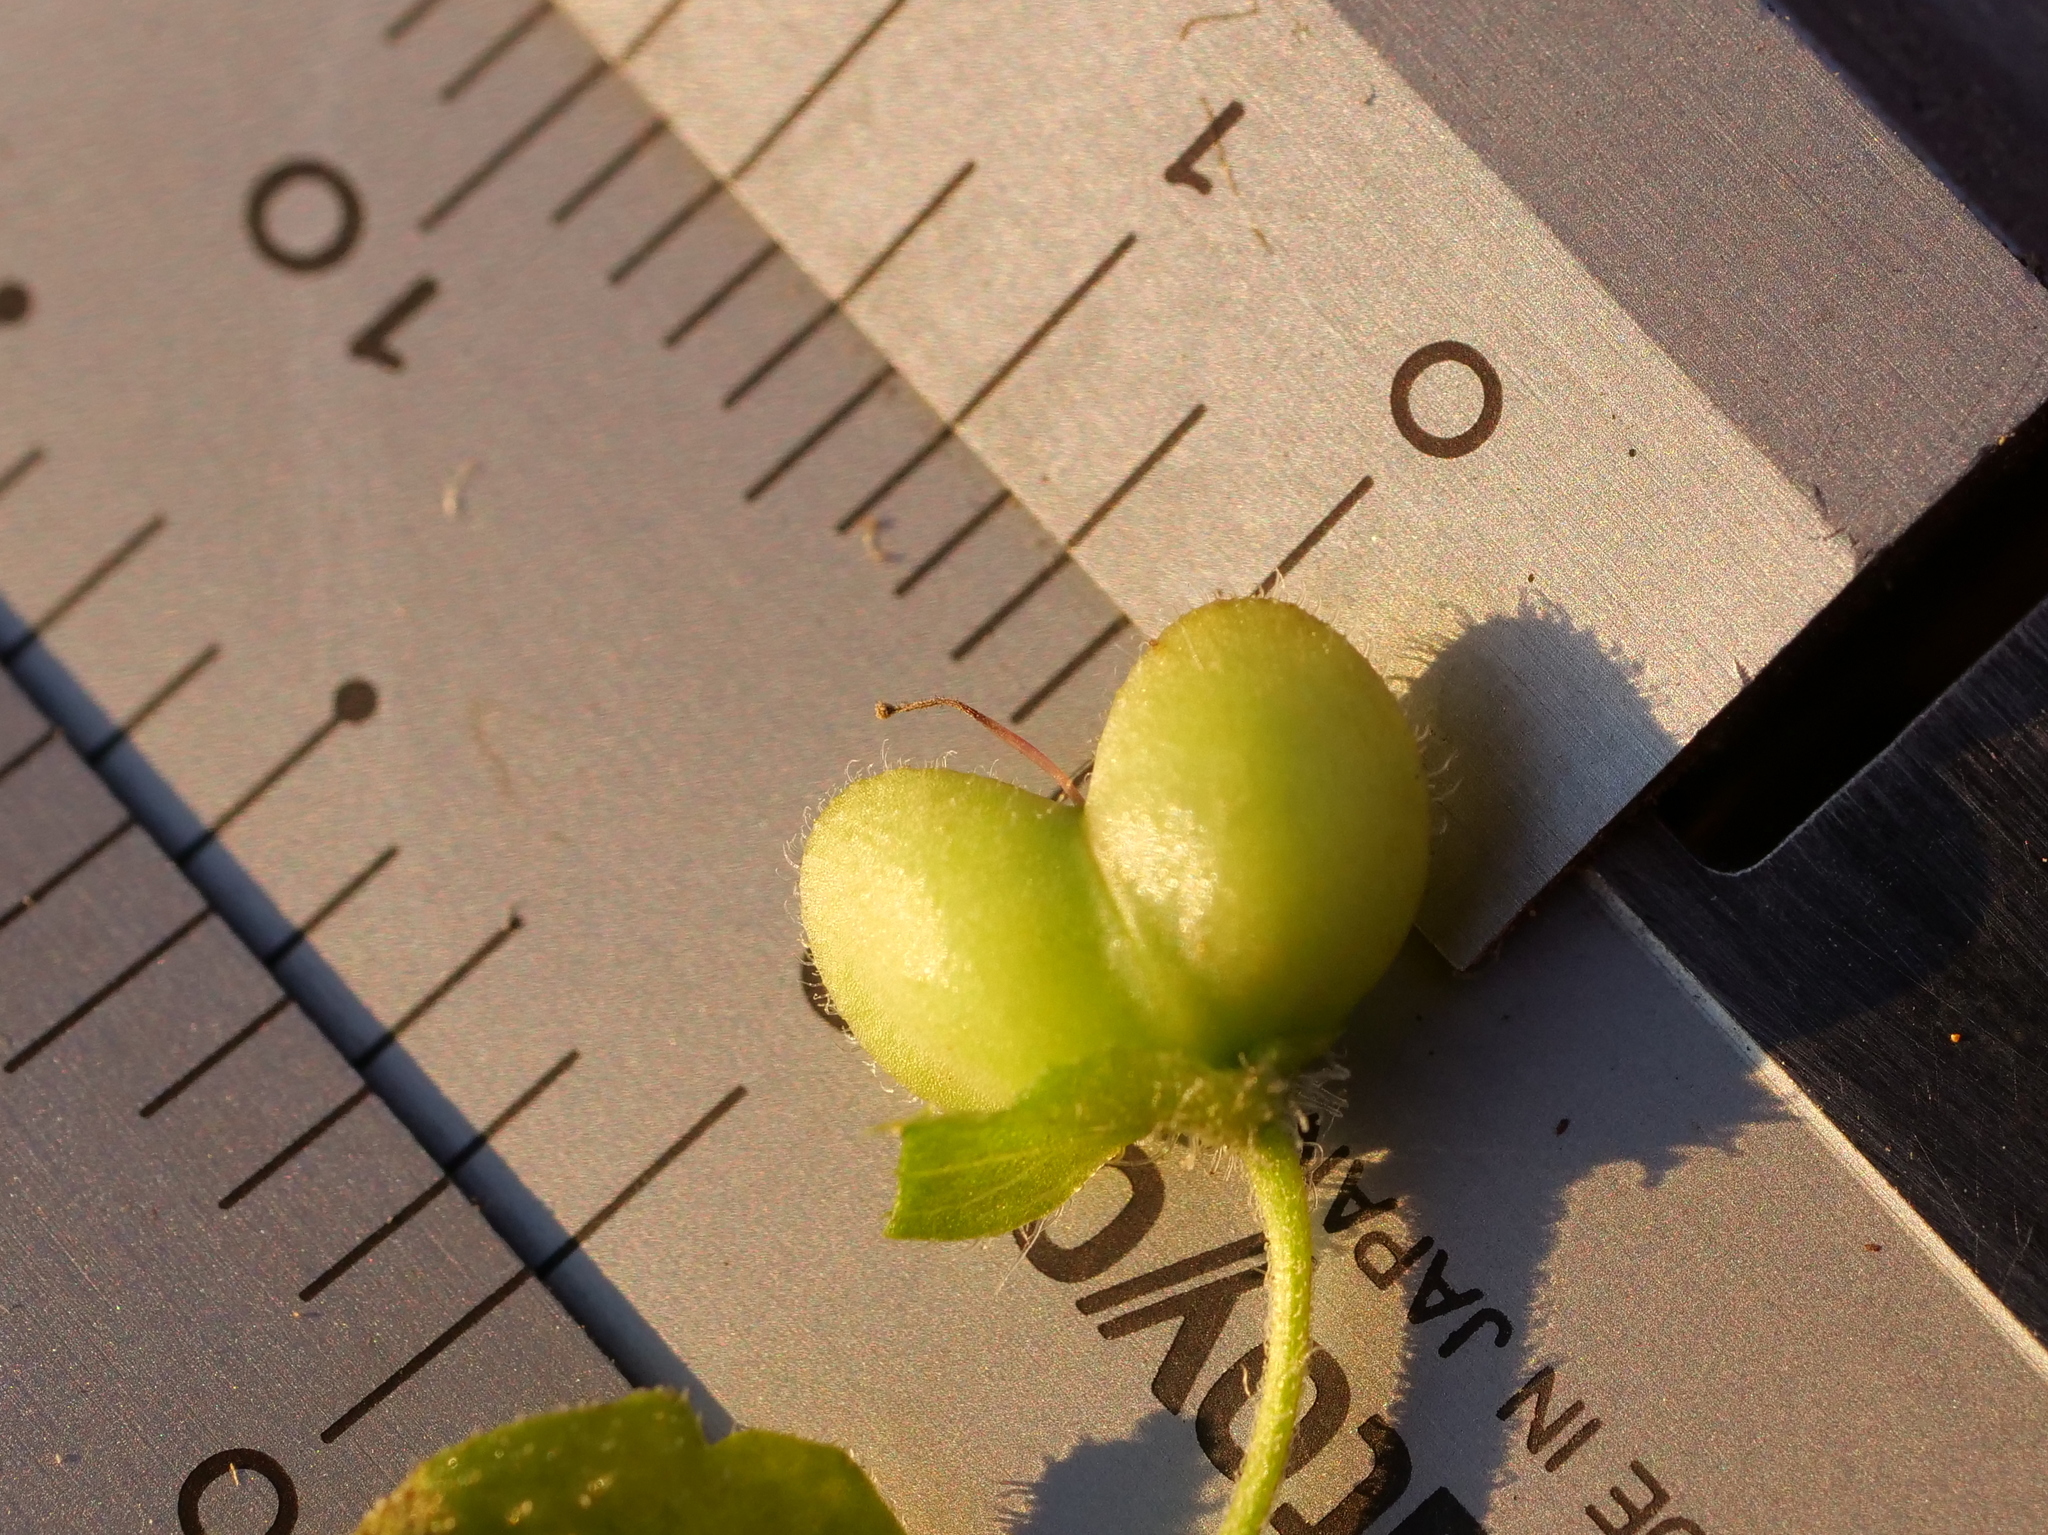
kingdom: Plantae
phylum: Tracheophyta
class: Magnoliopsida
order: Lamiales
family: Plantaginaceae
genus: Veronica
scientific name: Veronica persica
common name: Common field-speedwell
